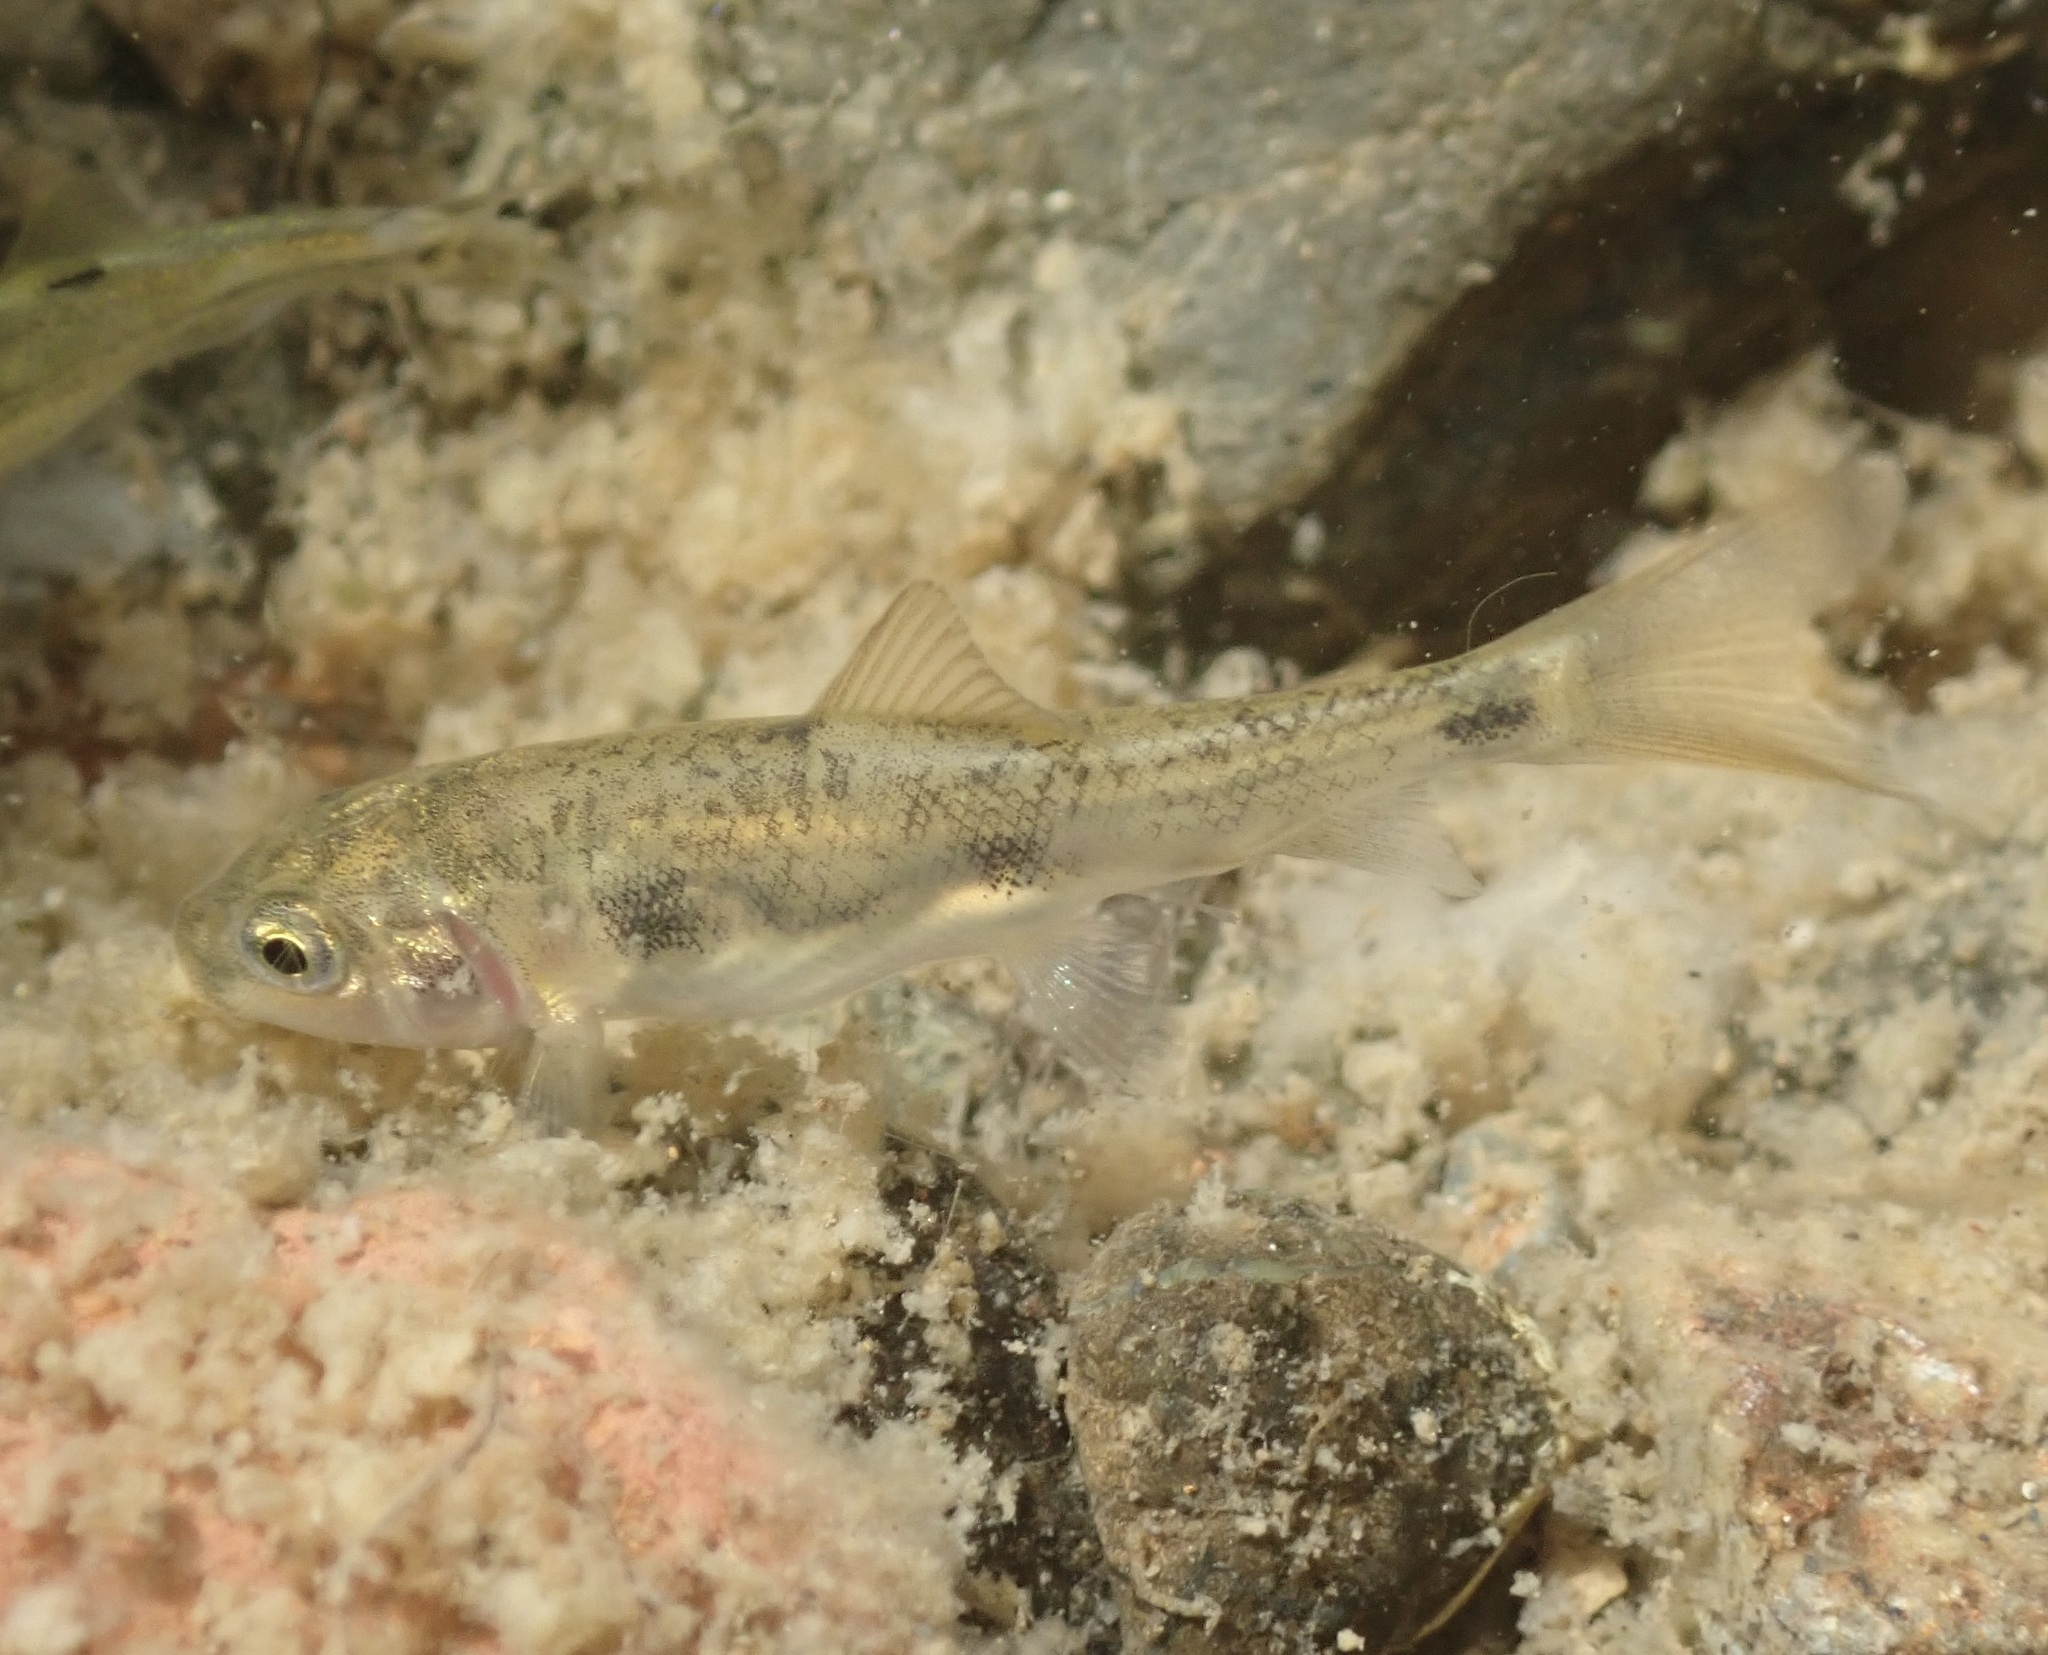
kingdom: Animalia
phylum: Chordata
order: Cypriniformes
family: Catostomidae
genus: Catostomus
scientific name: Catostomus occidentalis
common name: Goose lake sucker
